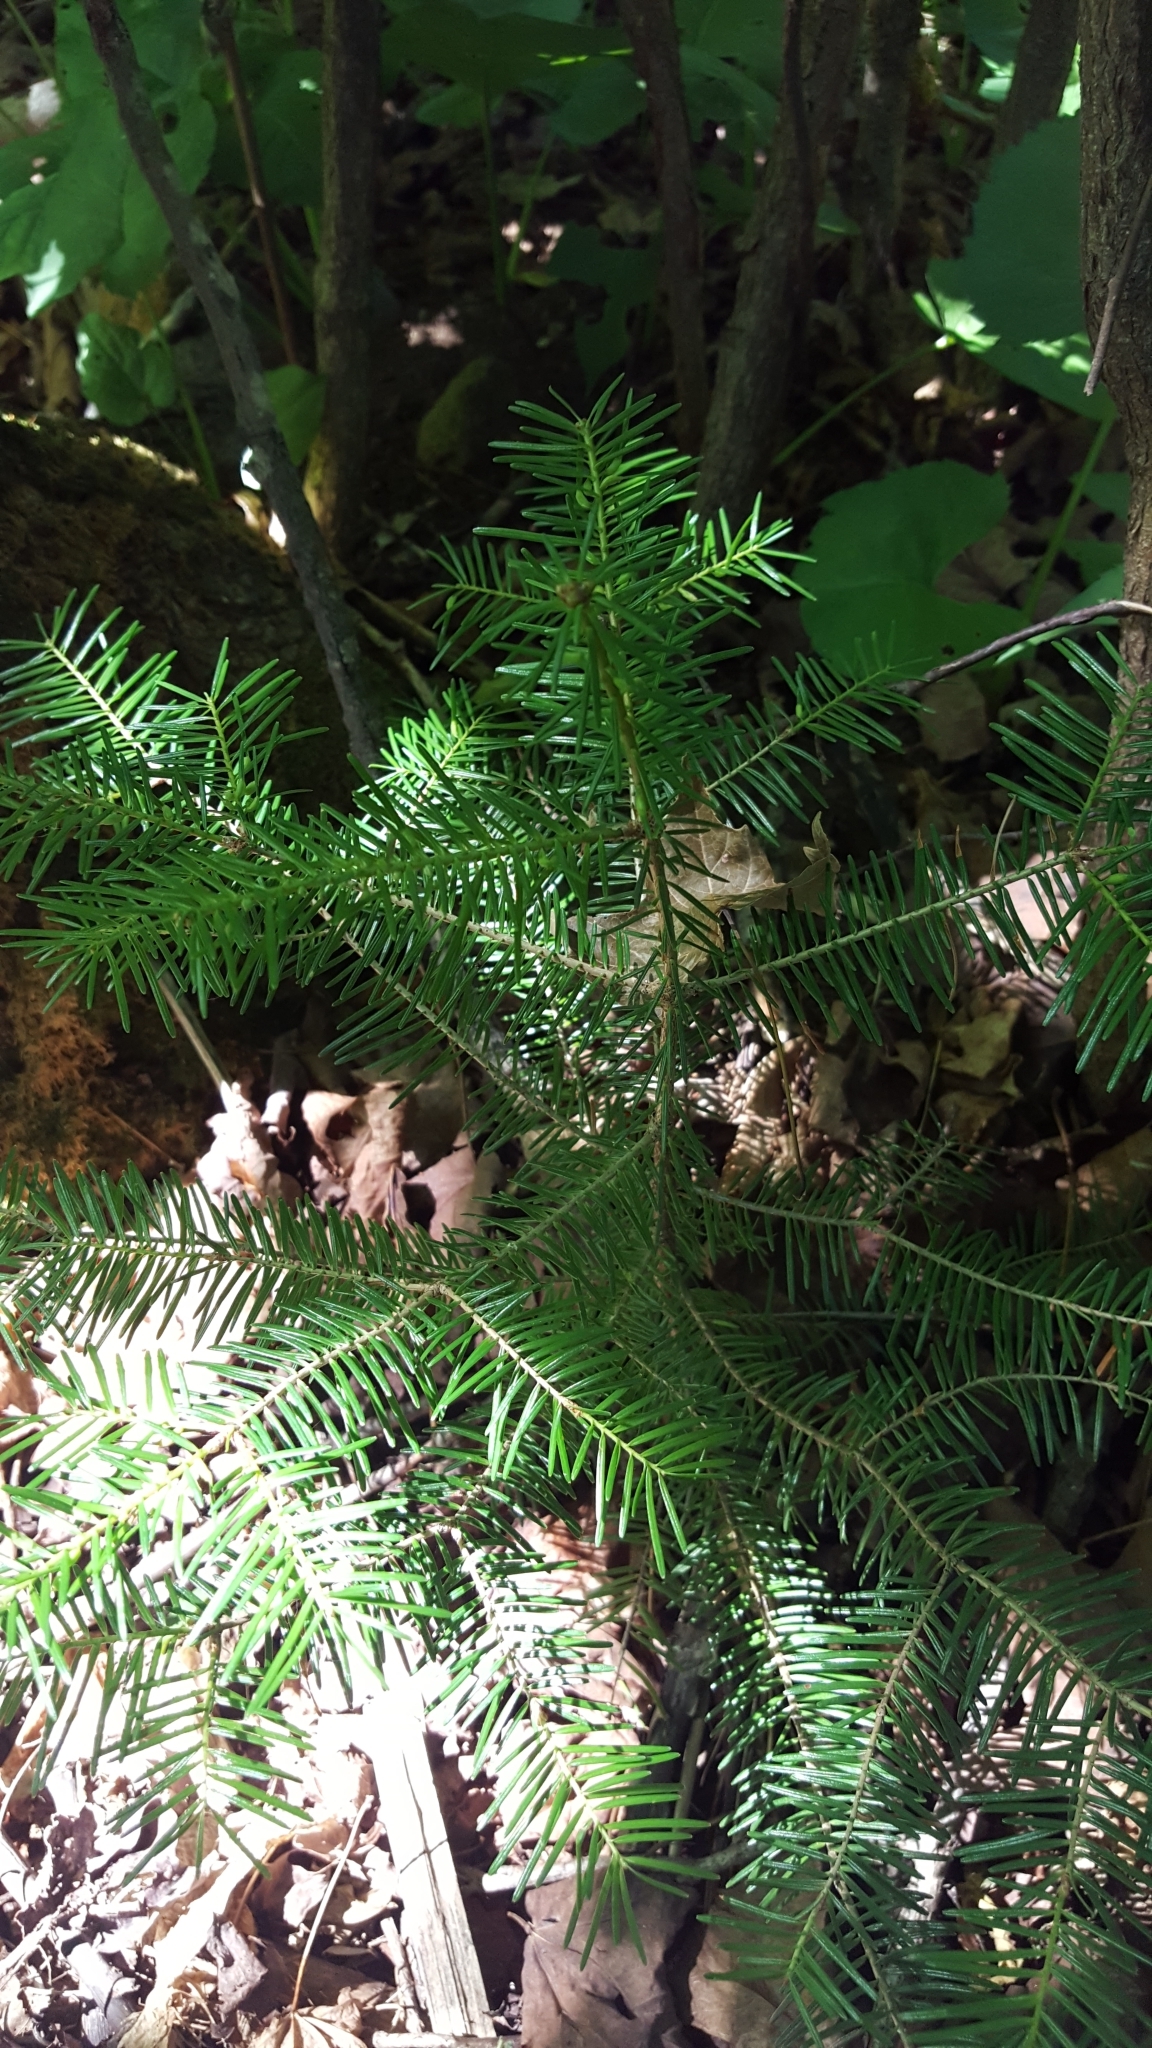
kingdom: Plantae
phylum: Tracheophyta
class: Pinopsida
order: Pinales
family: Pinaceae
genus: Abies
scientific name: Abies balsamea
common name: Balsam fir
